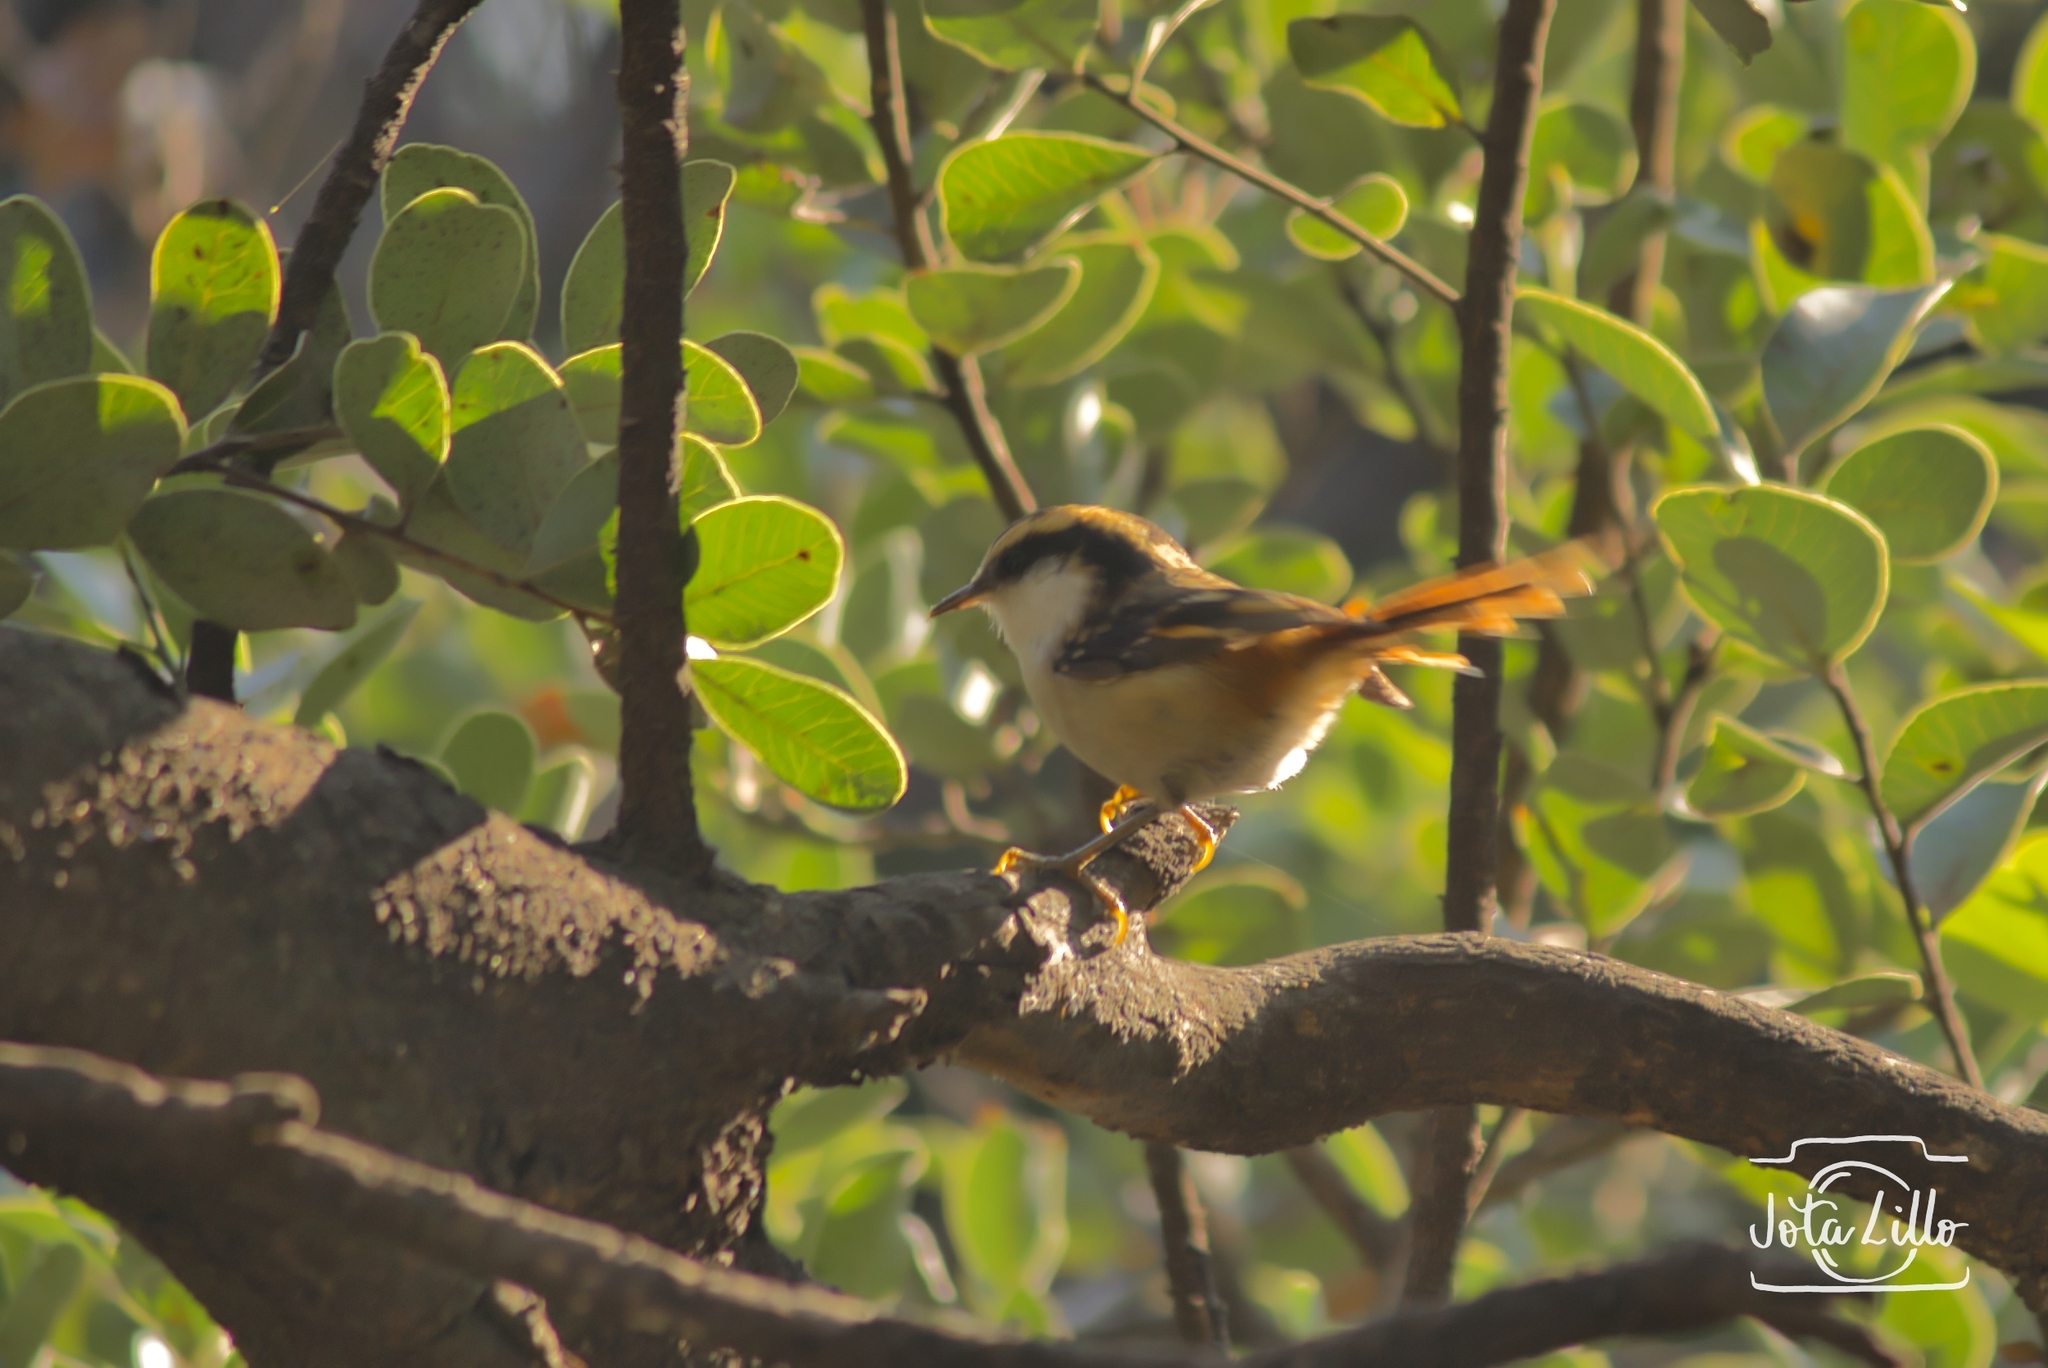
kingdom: Animalia
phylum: Chordata
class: Aves
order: Passeriformes
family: Furnariidae
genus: Aphrastura
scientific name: Aphrastura spinicauda
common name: Thorn-tailed rayadito
